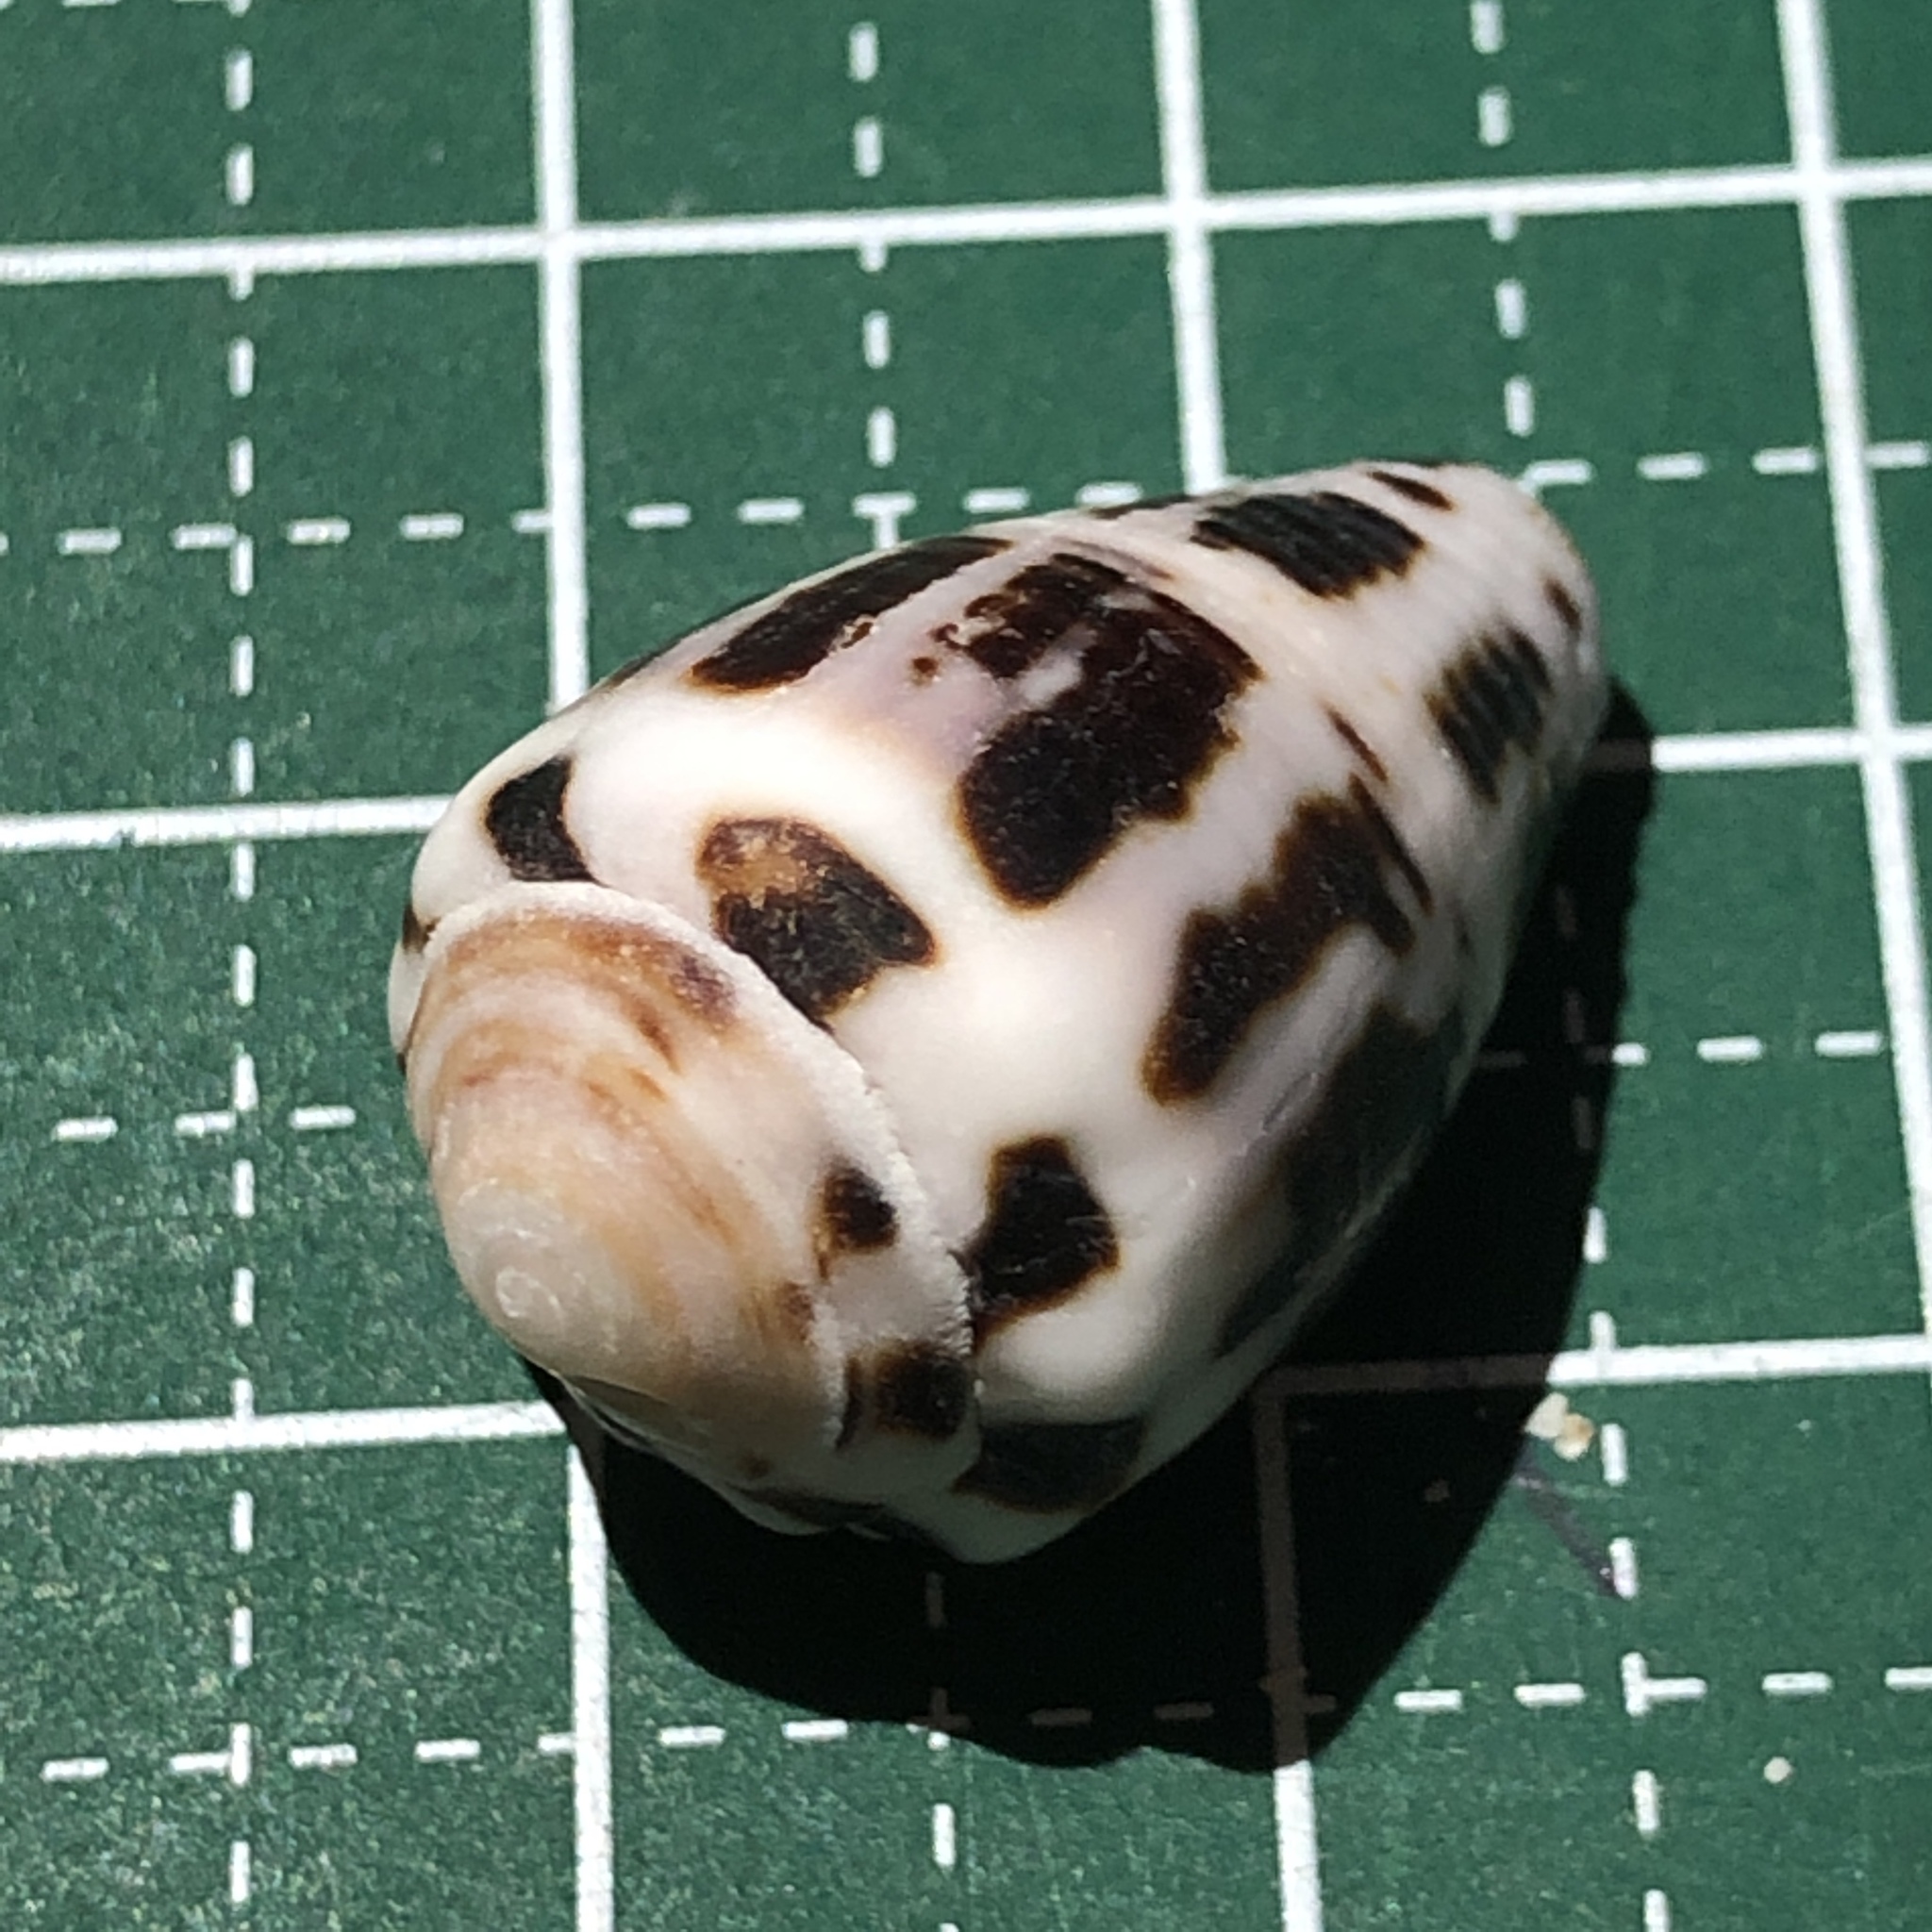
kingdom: Animalia
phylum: Mollusca
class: Gastropoda
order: Neogastropoda
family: Conidae
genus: Conus
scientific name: Conus chaldaeus
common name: Astrologer's cone
